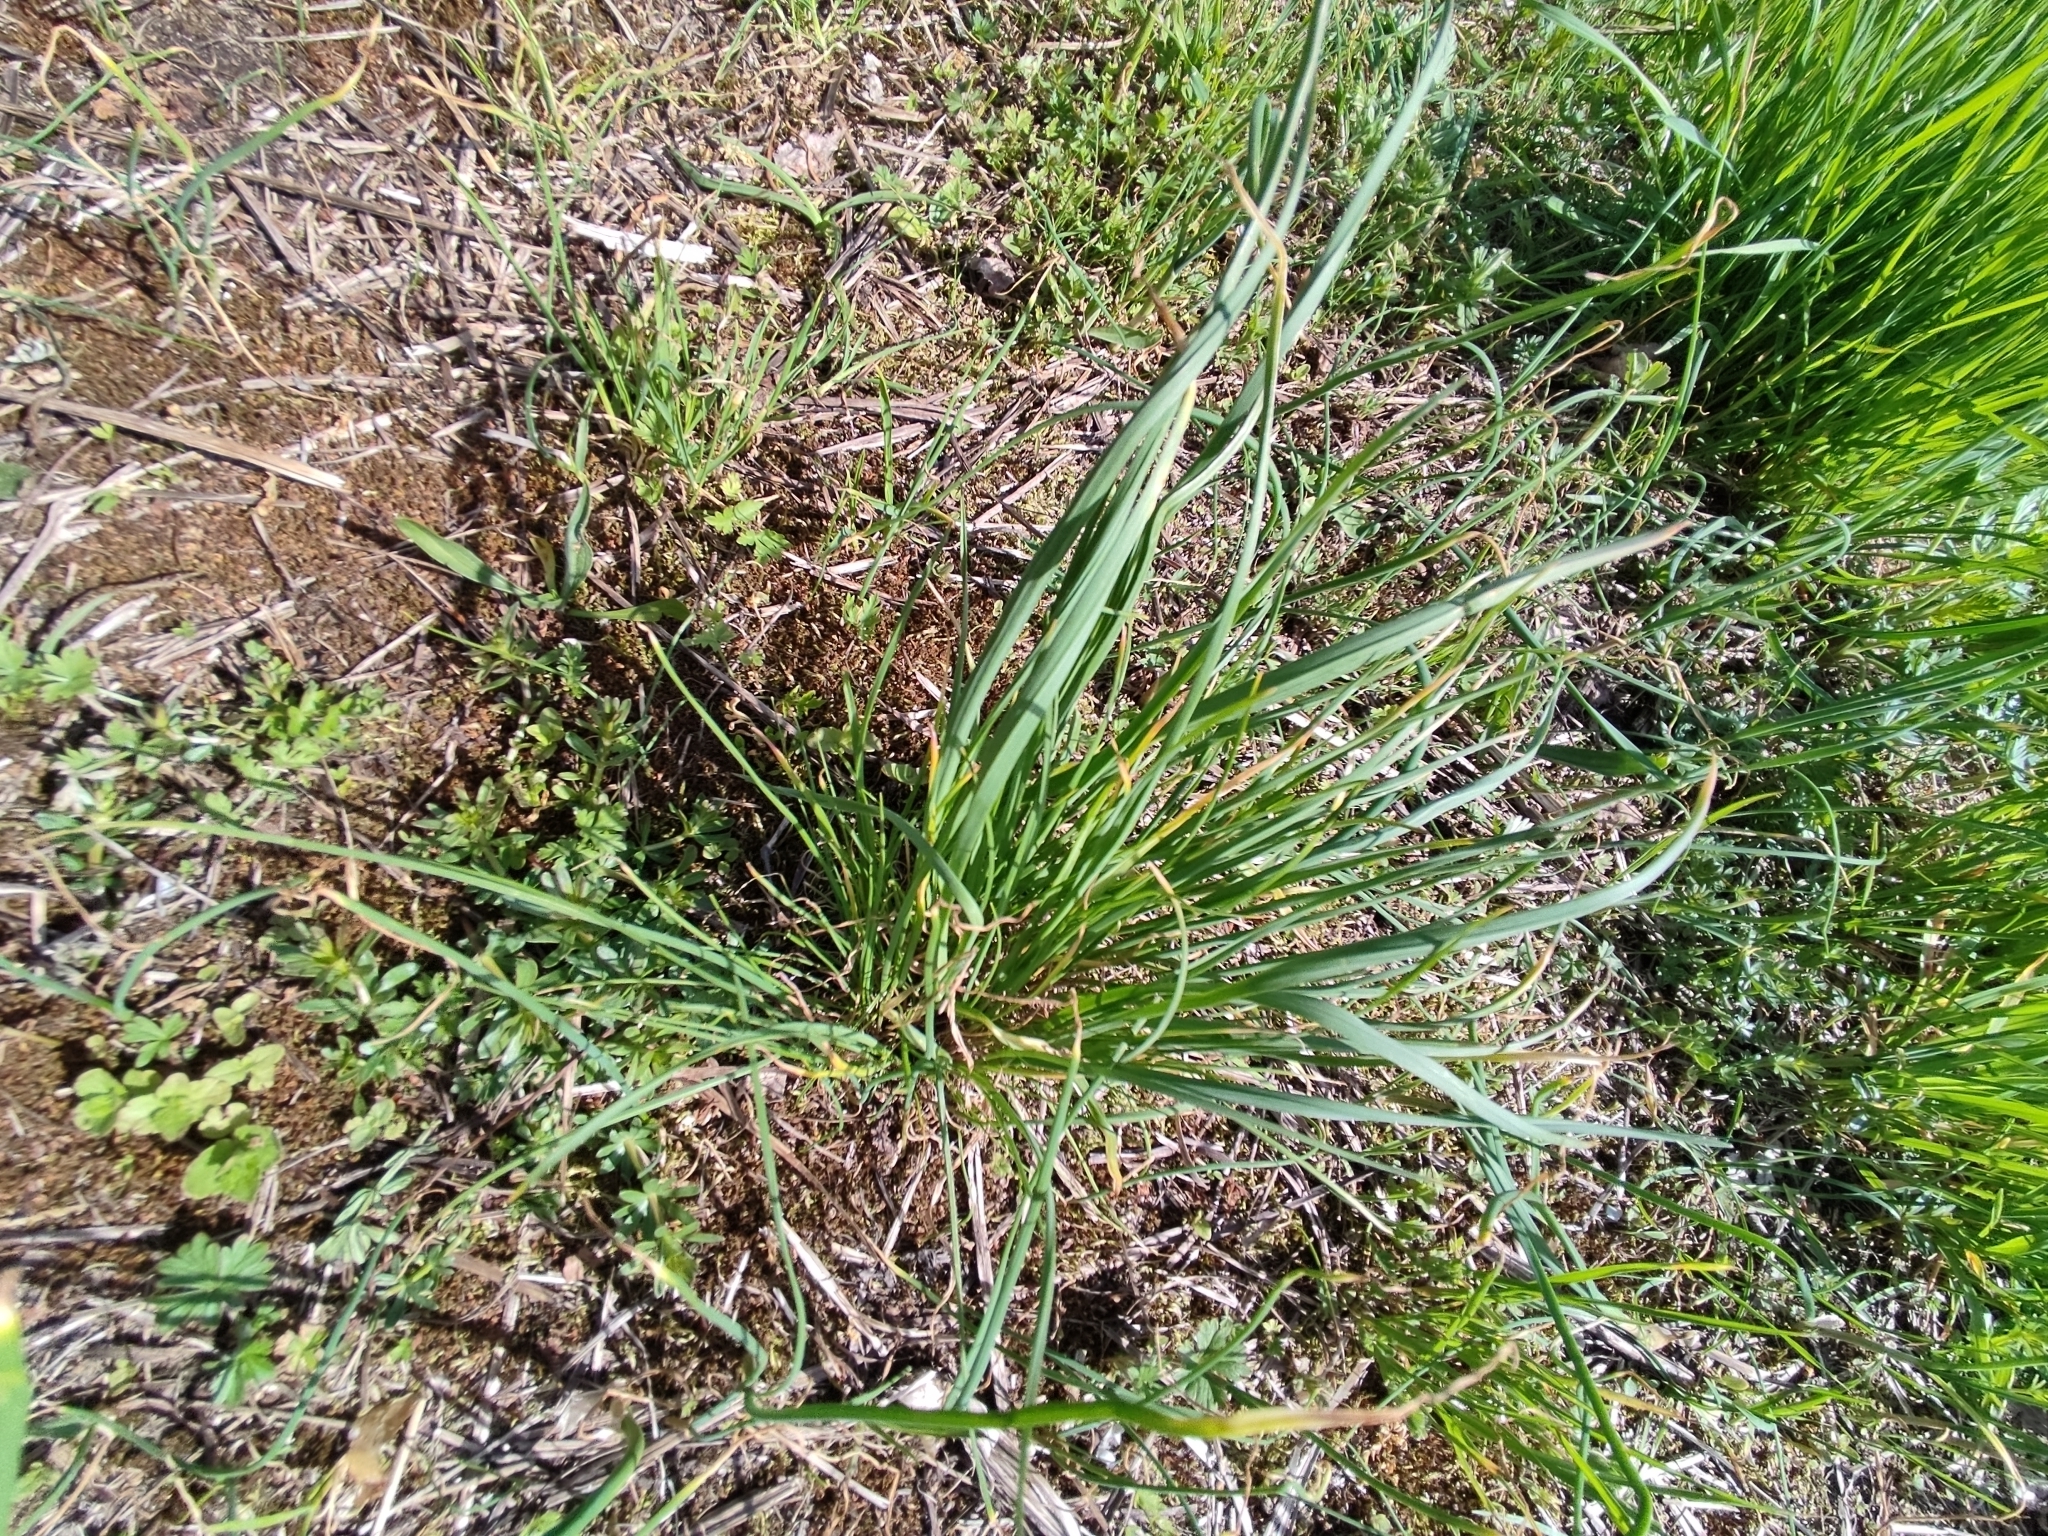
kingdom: Plantae
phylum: Tracheophyta
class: Liliopsida
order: Asparagales
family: Amaryllidaceae
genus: Allium
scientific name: Allium schoenoprasum
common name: Chives
